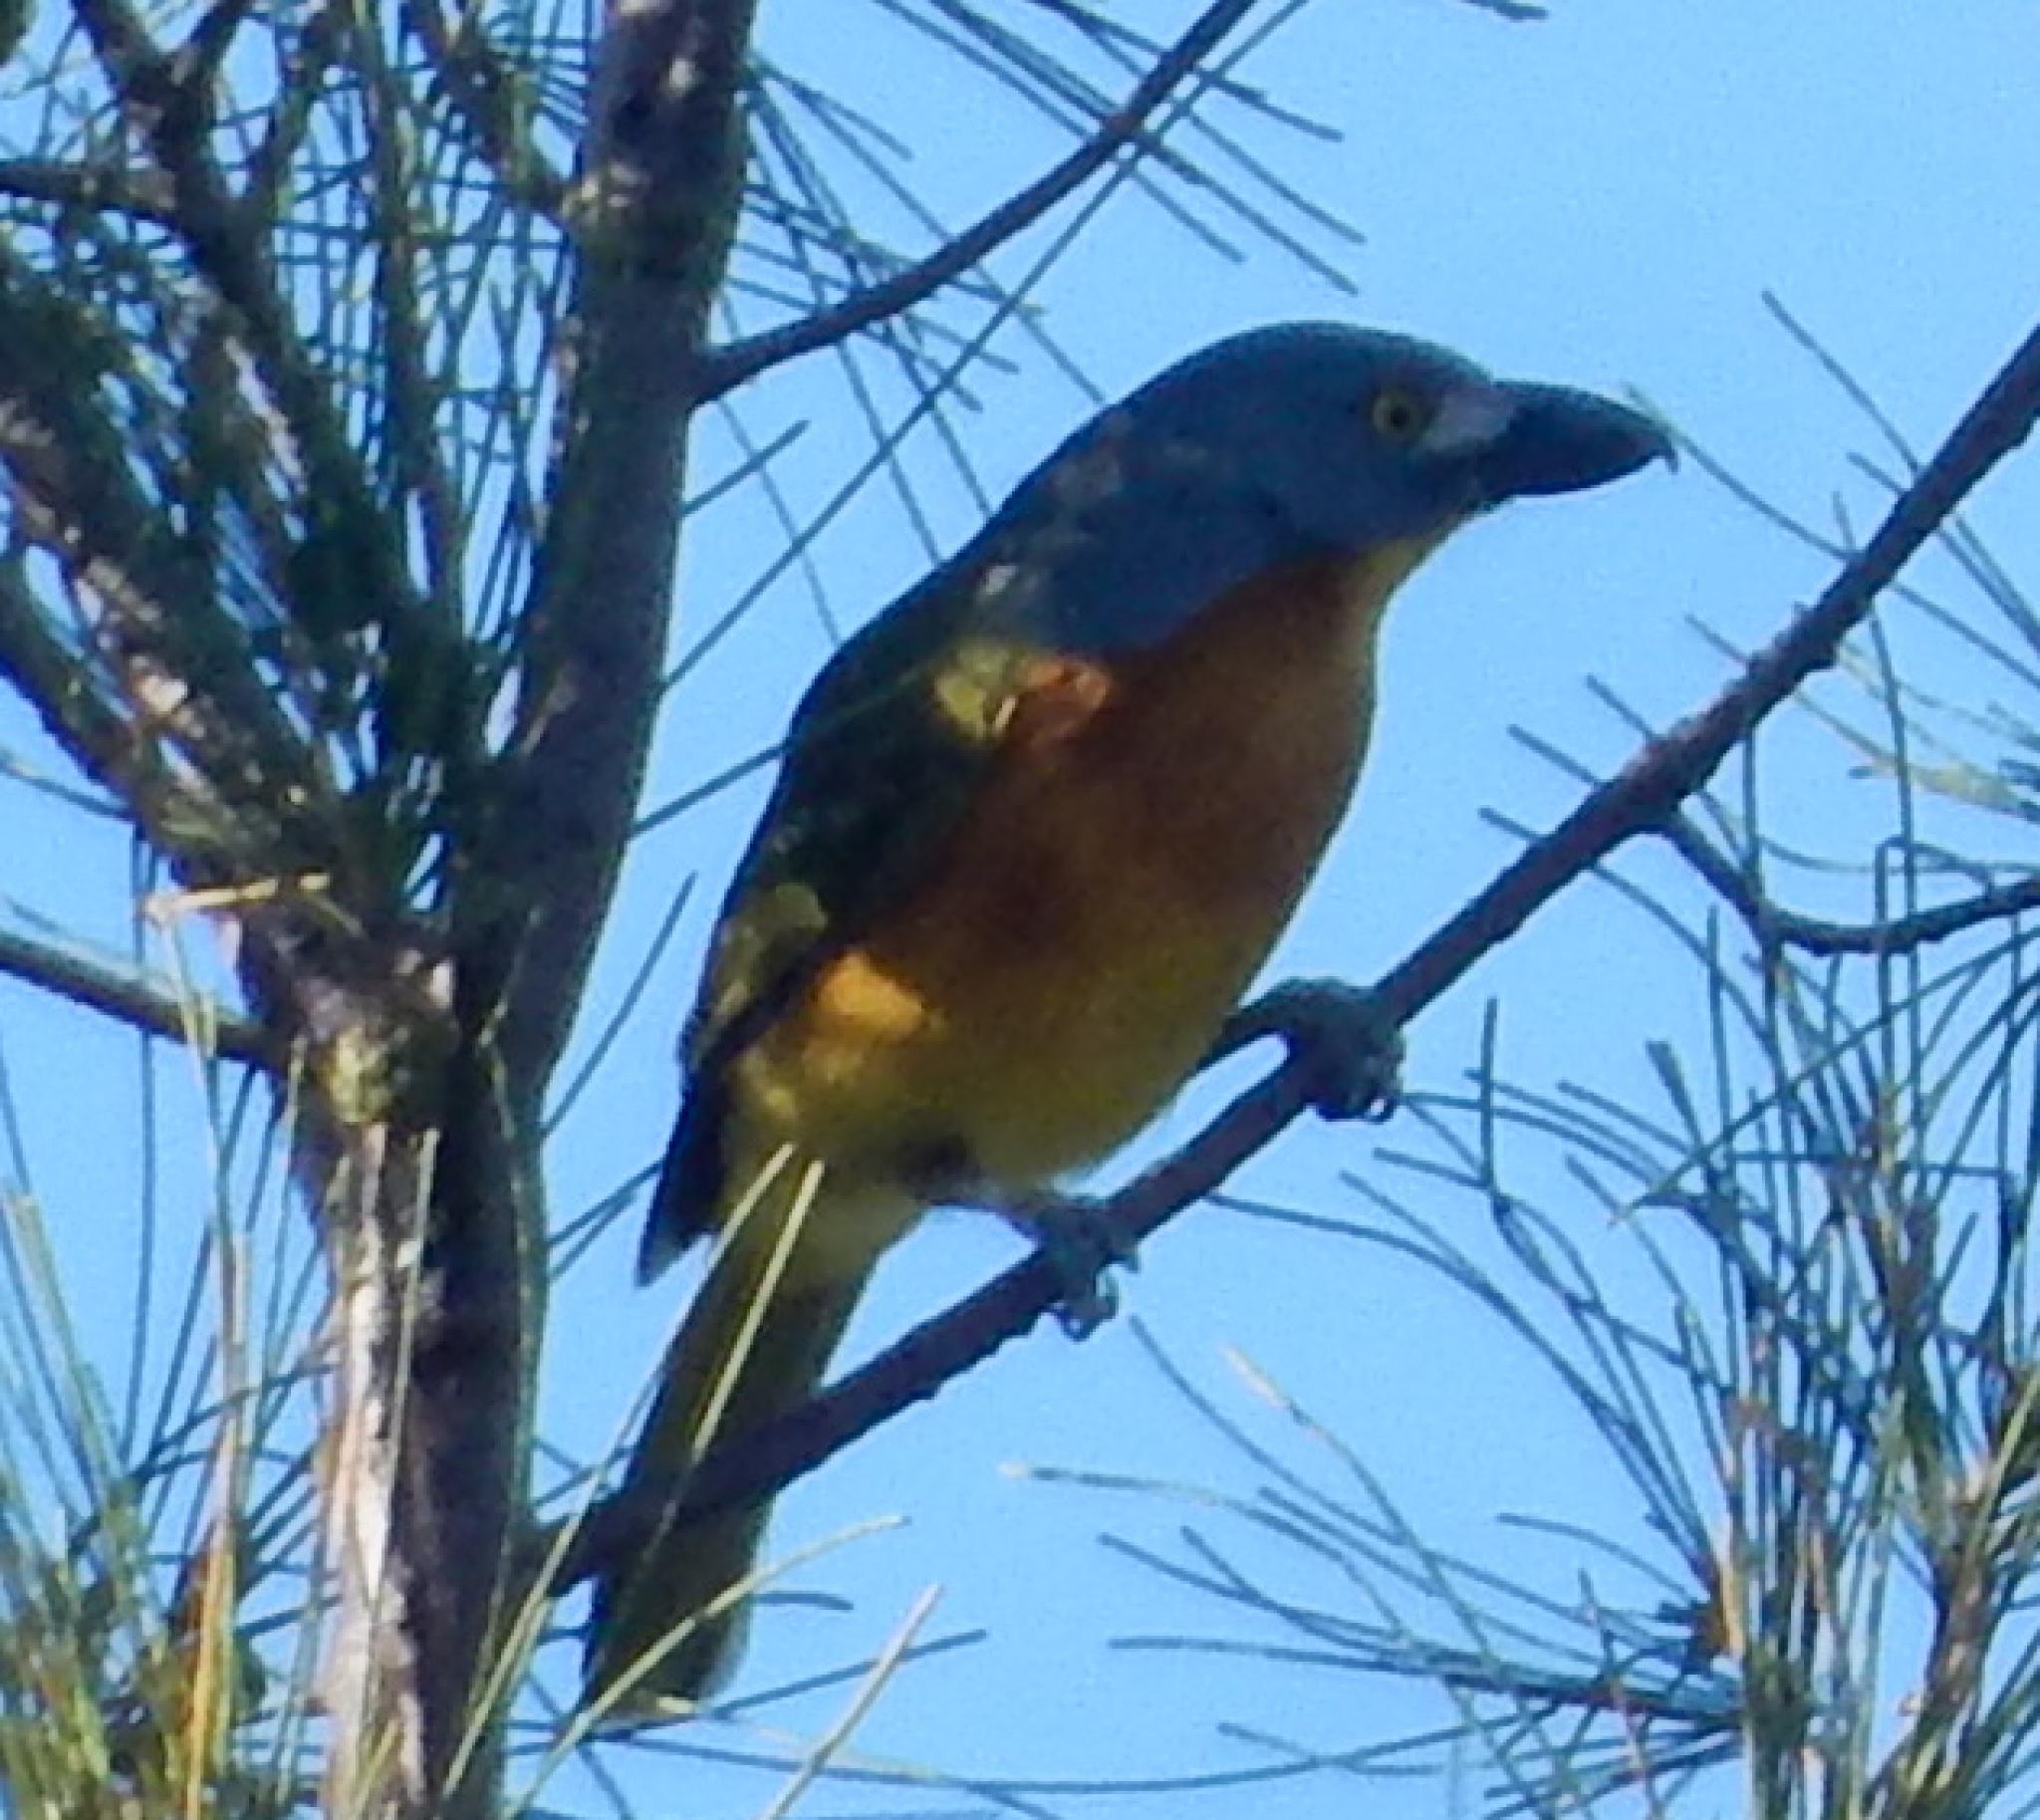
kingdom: Animalia
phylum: Chordata
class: Aves
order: Passeriformes
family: Malaconotidae
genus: Malaconotus
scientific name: Malaconotus blanchoti
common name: Grey-headed bushshrike
